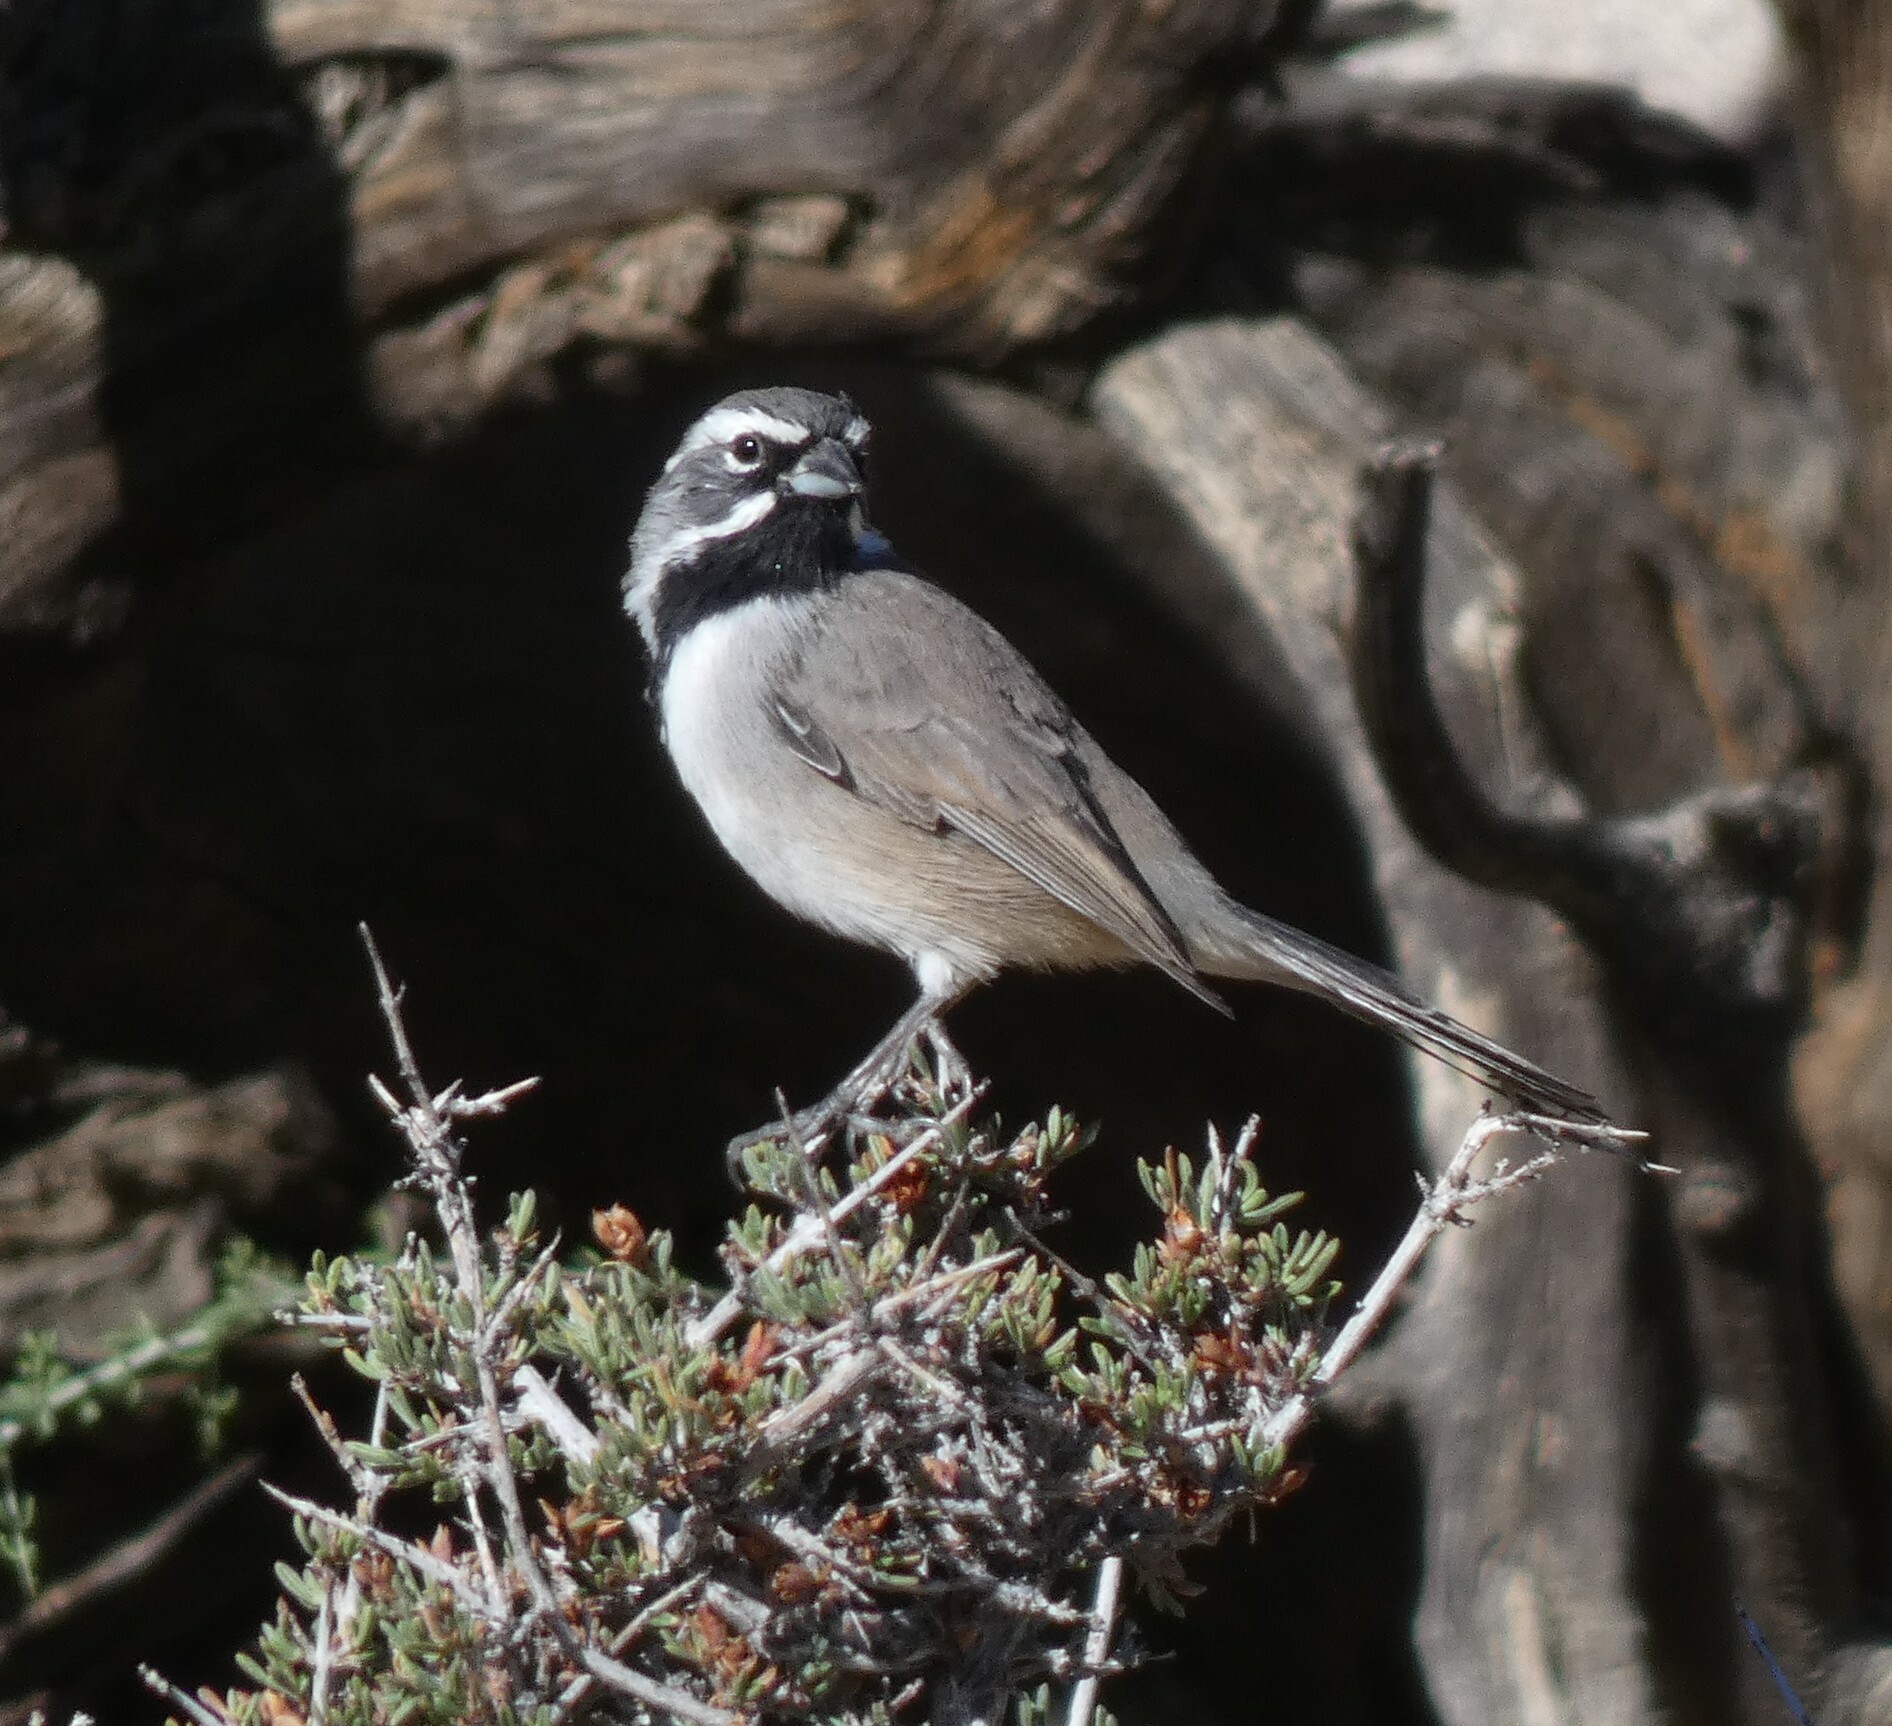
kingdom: Animalia
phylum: Chordata
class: Aves
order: Passeriformes
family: Passerellidae
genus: Amphispiza
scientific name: Amphispiza bilineata
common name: Black-throated sparrow
